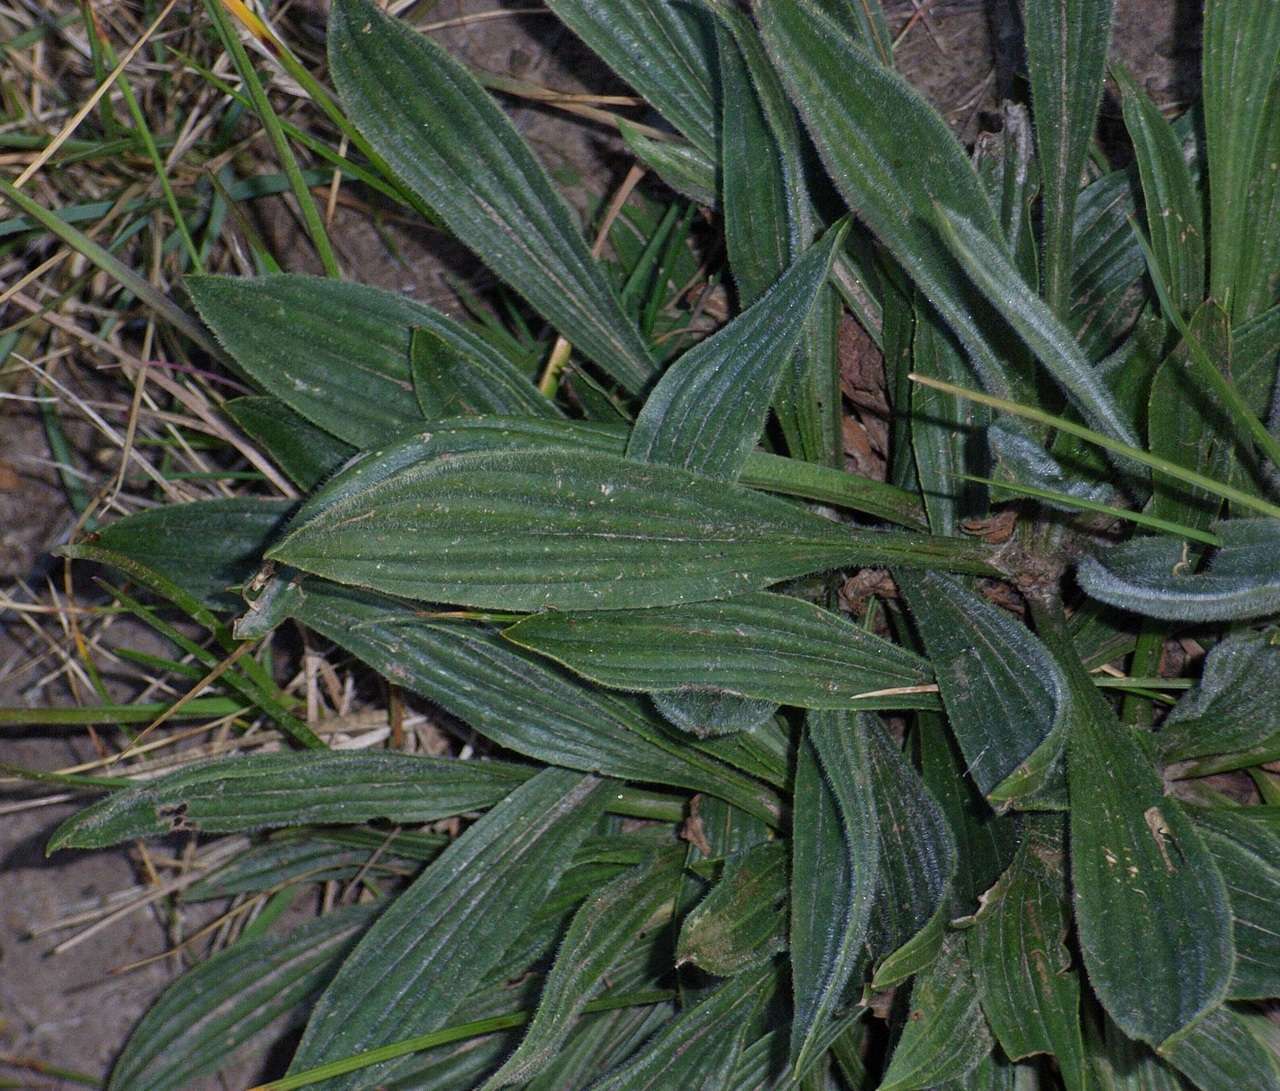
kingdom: Plantae
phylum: Tracheophyta
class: Magnoliopsida
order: Lamiales
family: Plantaginaceae
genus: Plantago
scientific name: Plantago lanceolata
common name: Ribwort plantain
